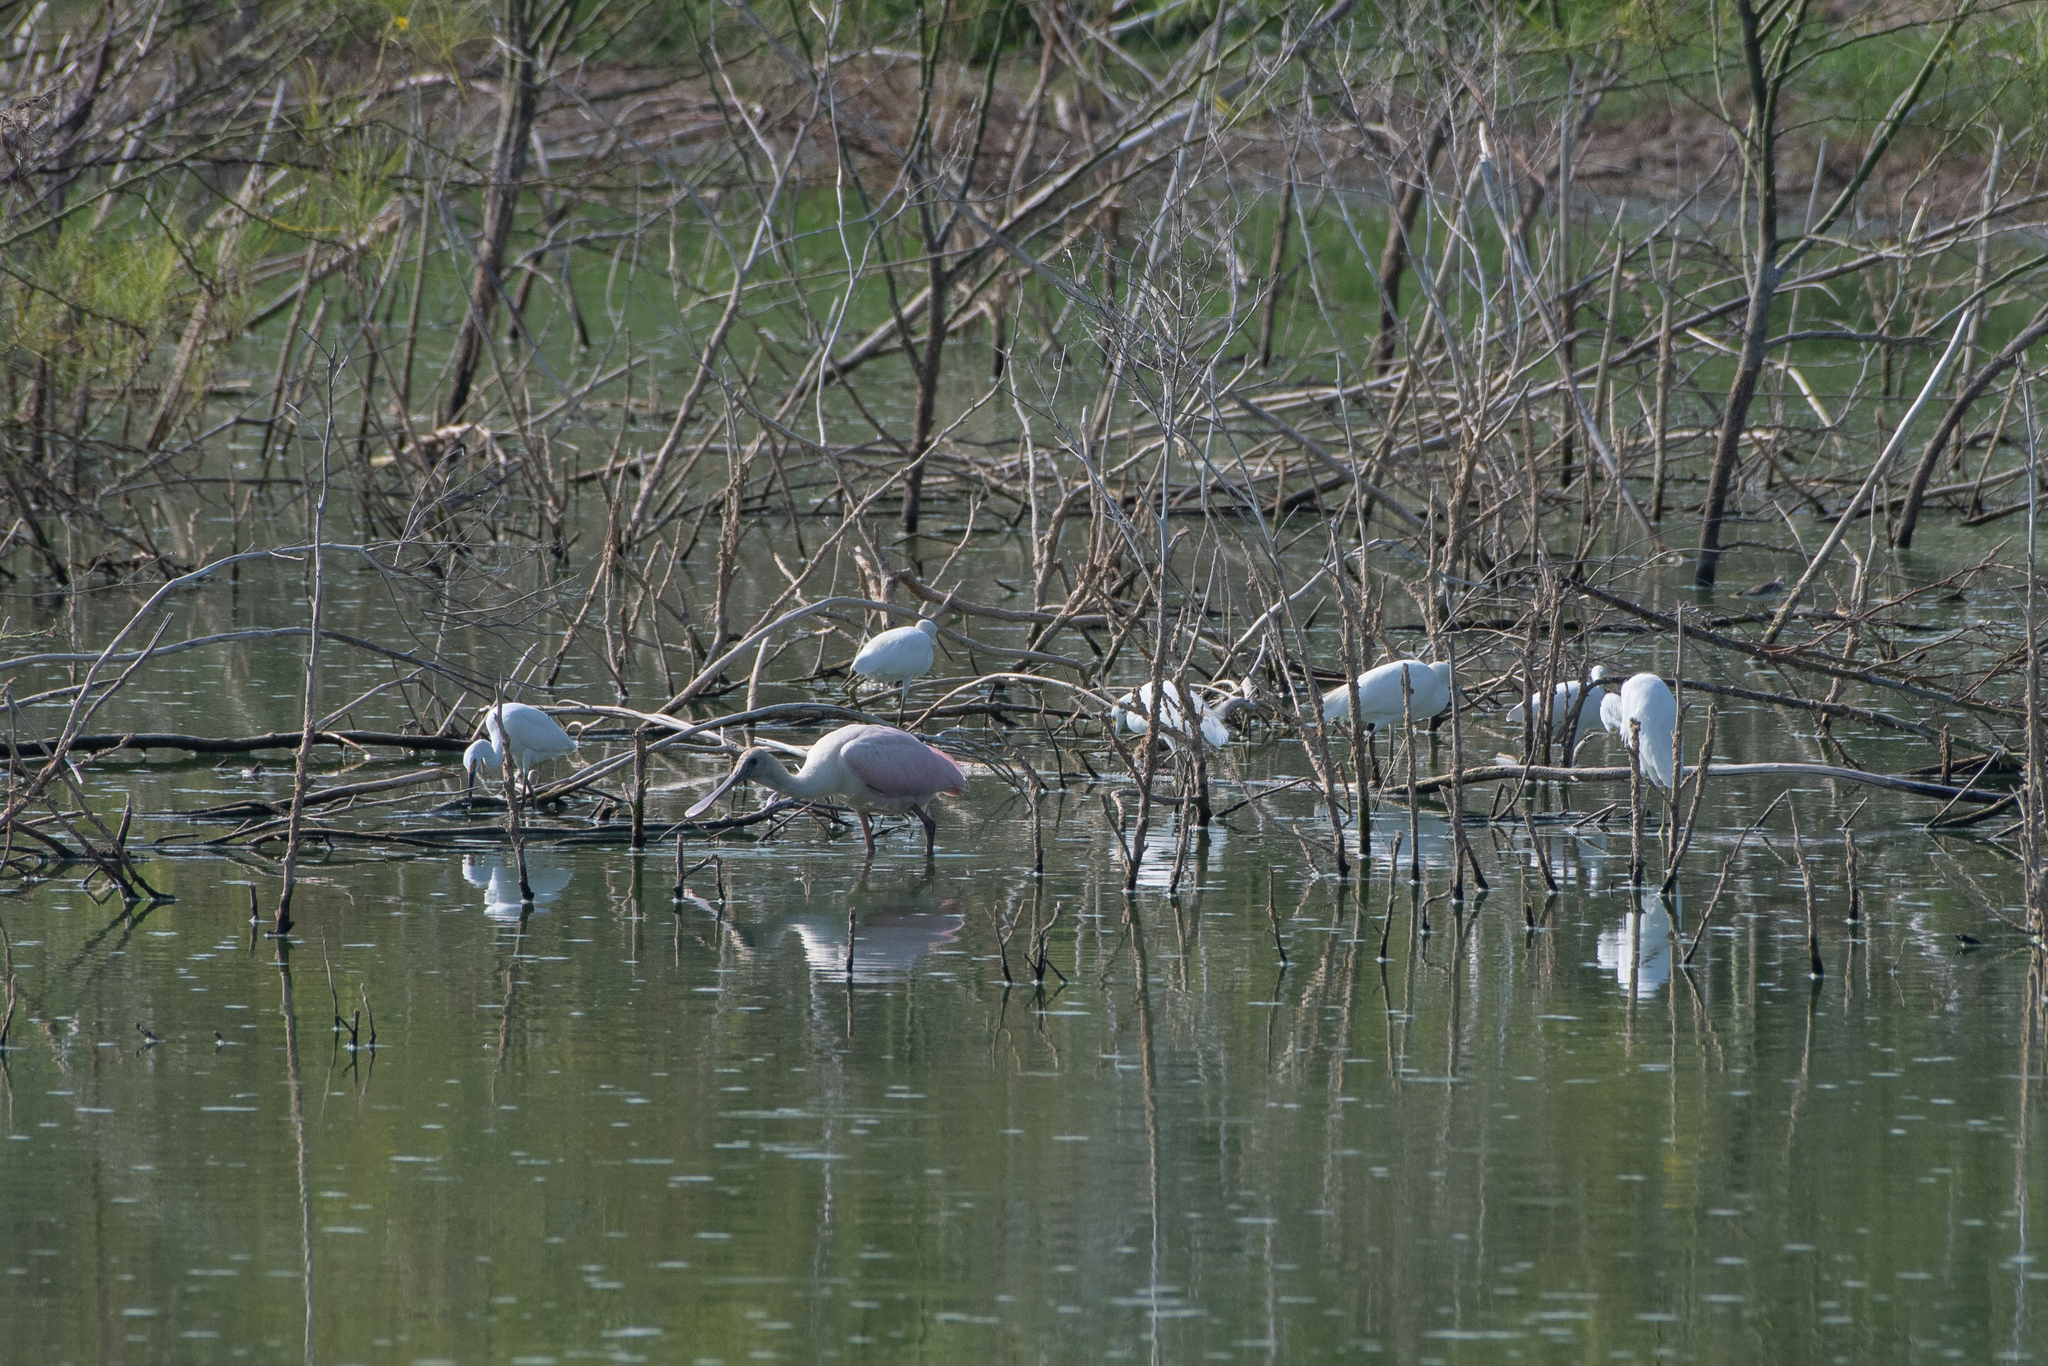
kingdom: Animalia
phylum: Chordata
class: Aves
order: Pelecaniformes
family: Ardeidae
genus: Egretta
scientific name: Egretta thula
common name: Snowy egret
